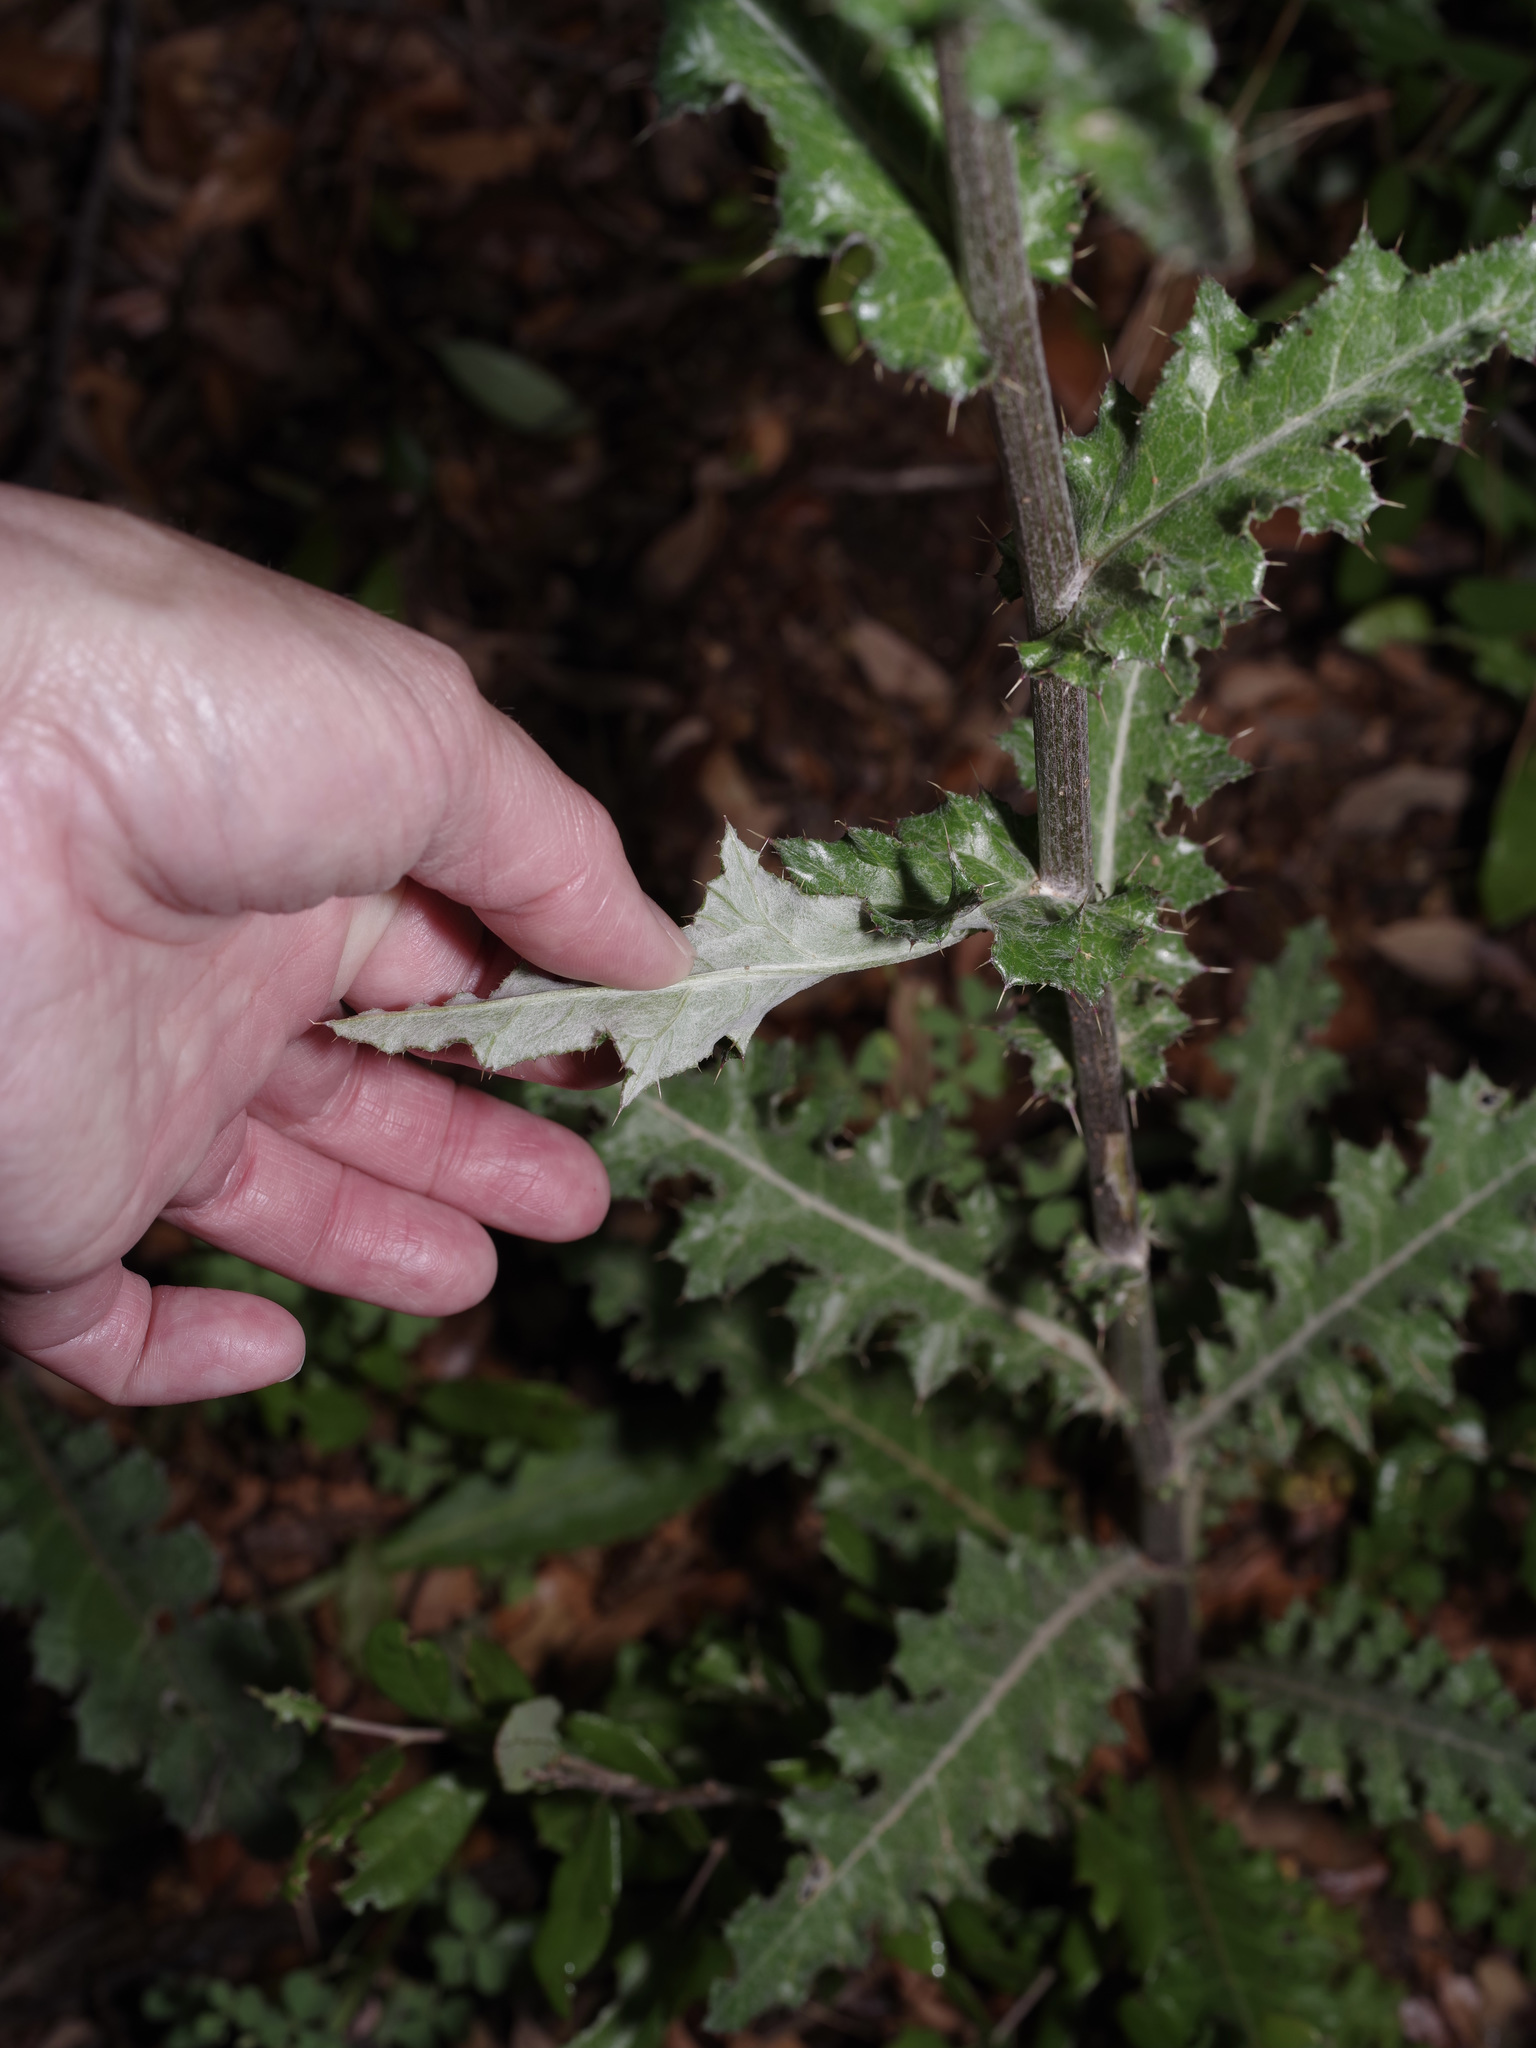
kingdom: Plantae
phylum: Tracheophyta
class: Magnoliopsida
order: Asterales
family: Asteraceae
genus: Cirsium
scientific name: Cirsium texanum
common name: Texas purple thistle
